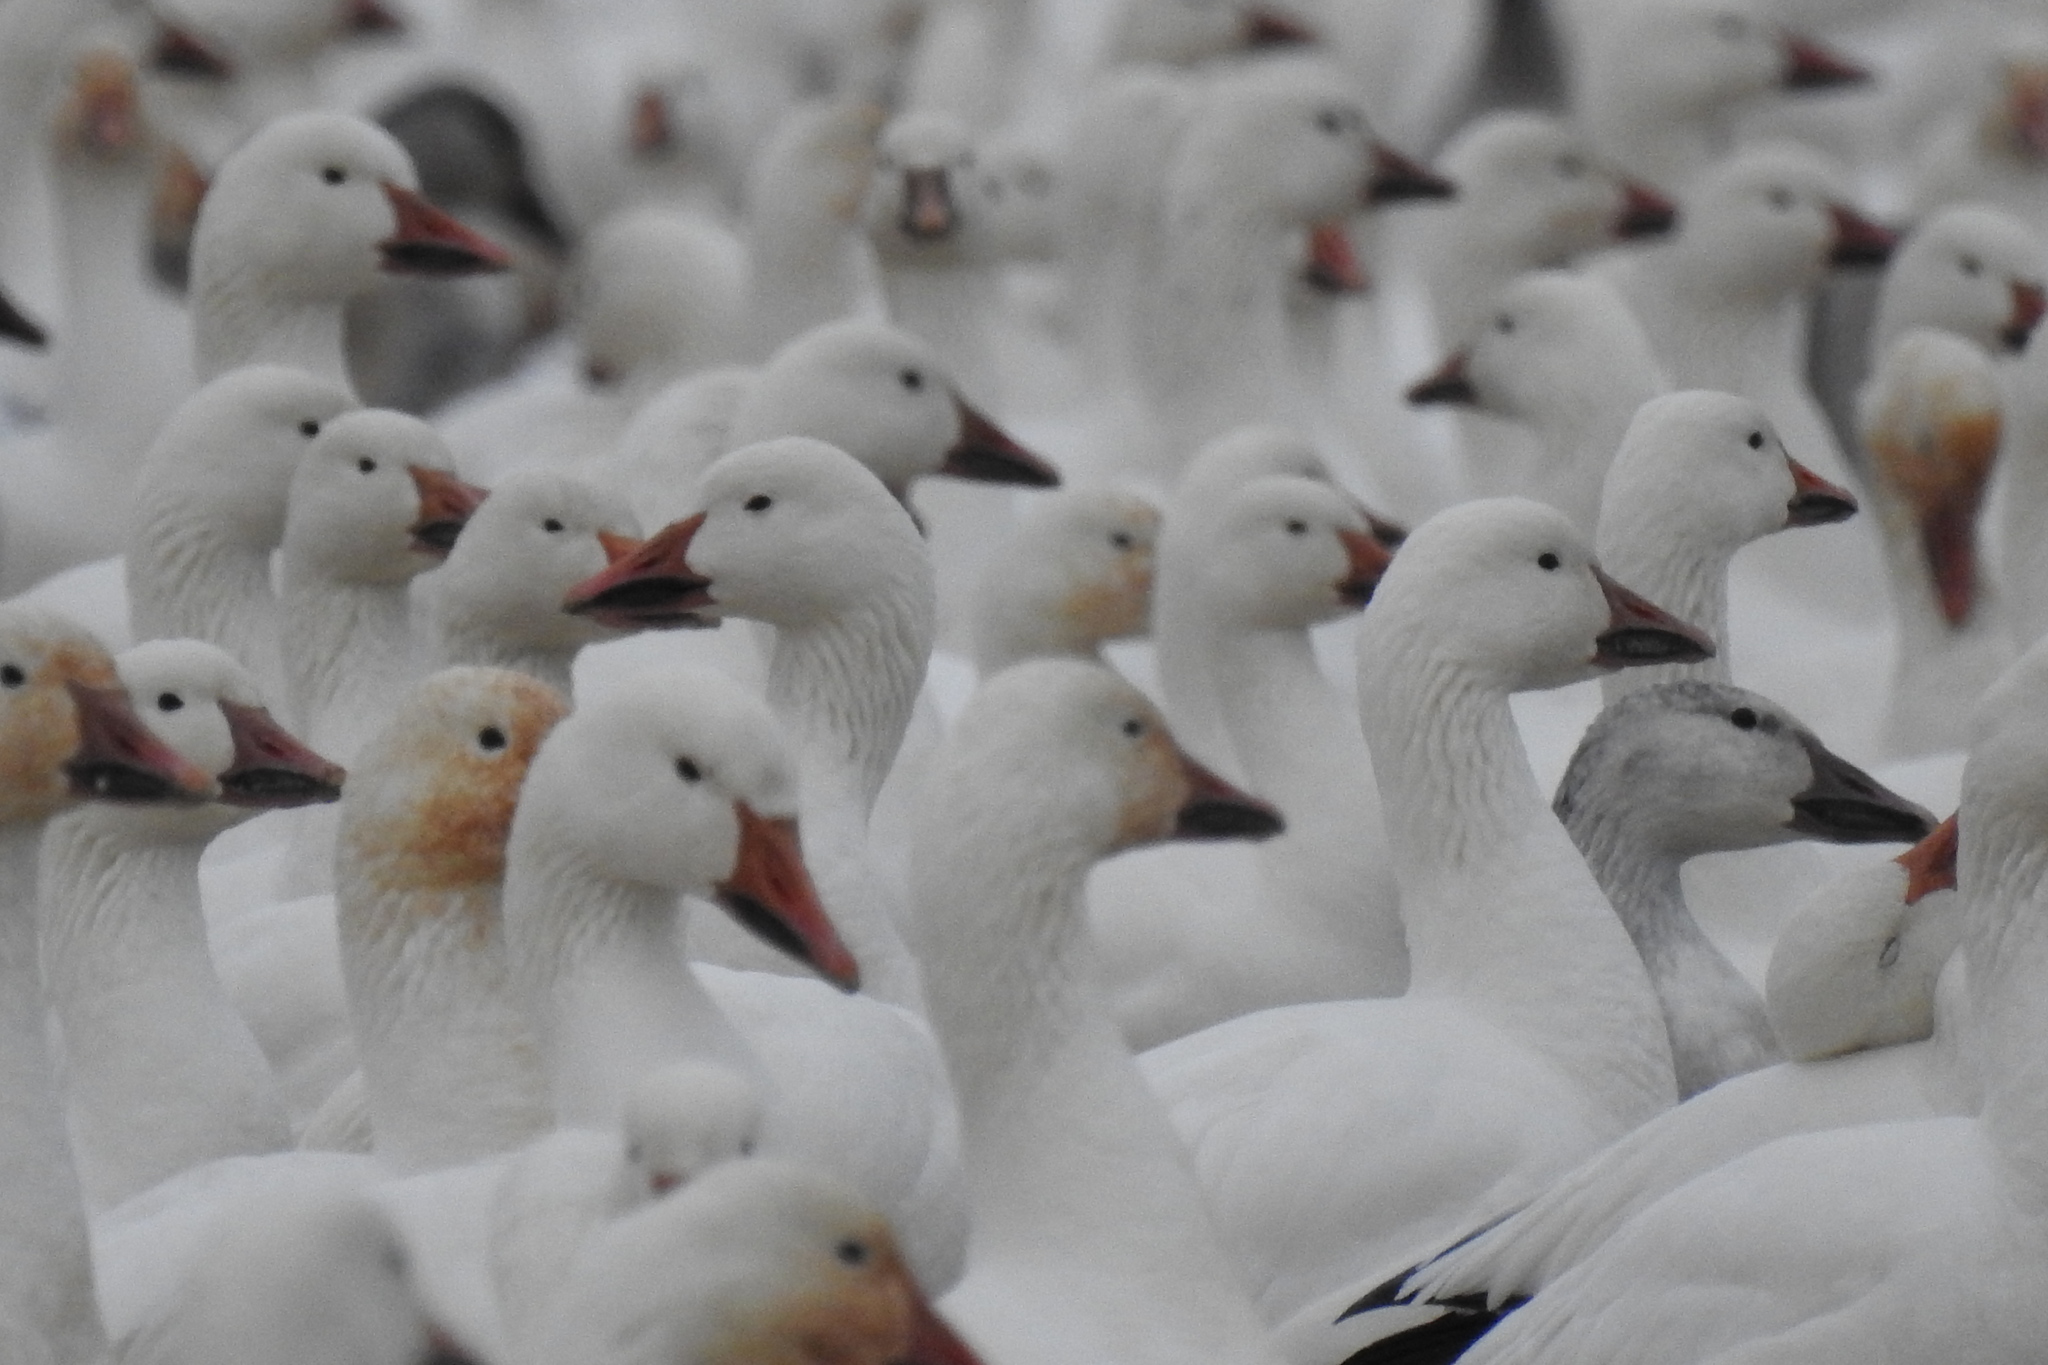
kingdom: Animalia
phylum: Chordata
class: Aves
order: Anseriformes
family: Anatidae
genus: Anser
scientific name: Anser caerulescens
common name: Snow goose
